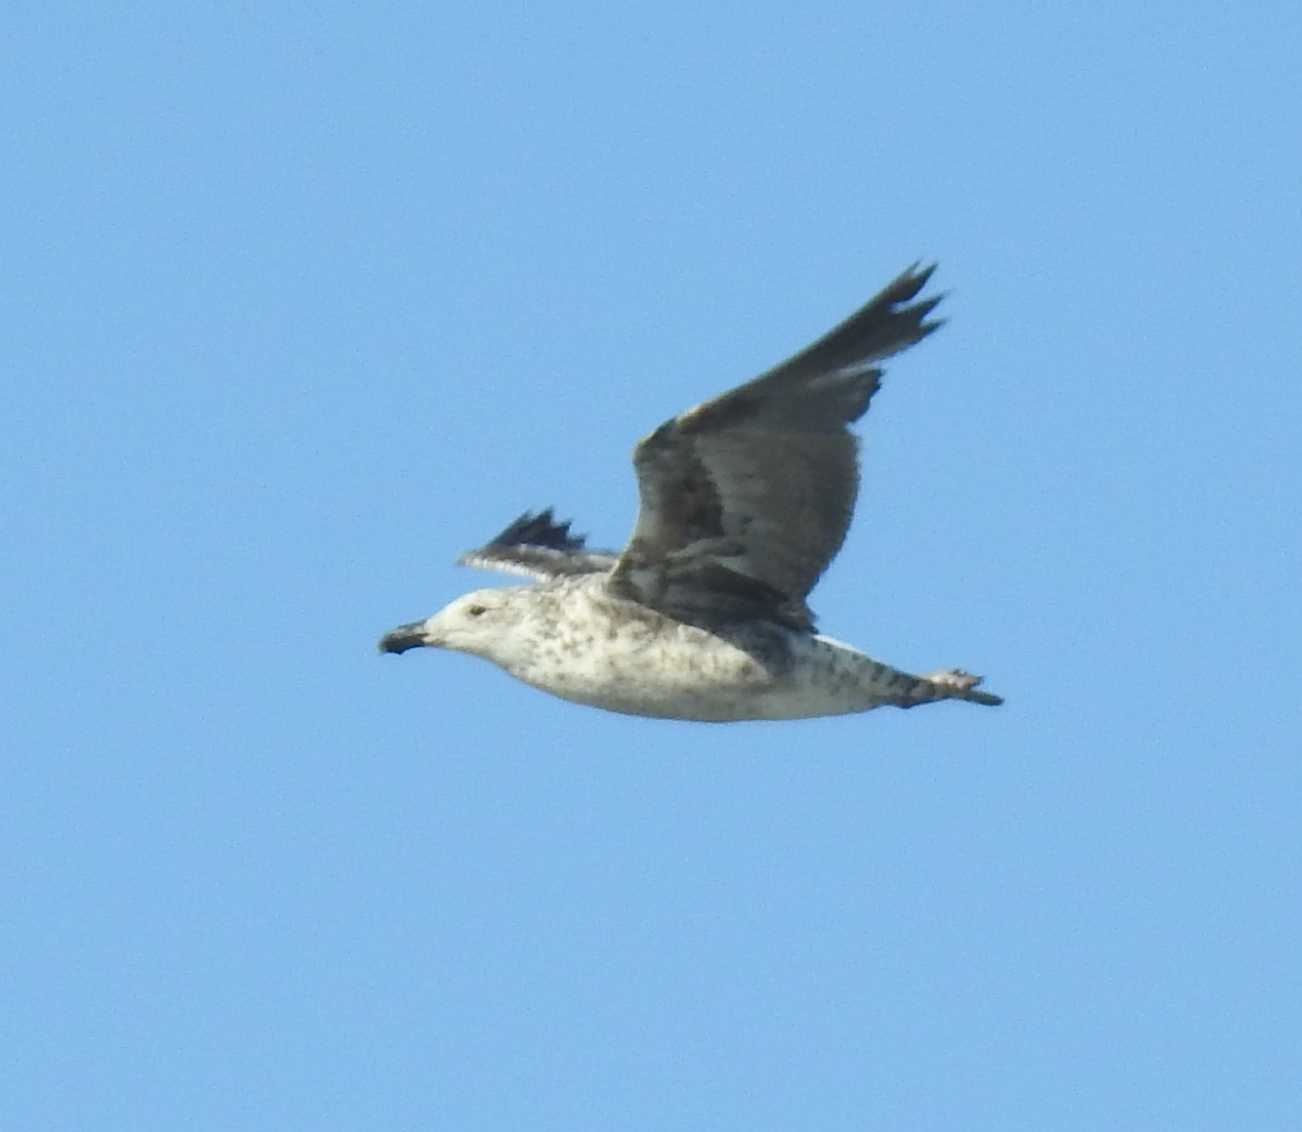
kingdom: Animalia
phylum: Chordata
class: Aves
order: Charadriiformes
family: Laridae
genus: Larus
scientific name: Larus dominicanus
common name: Kelp gull
